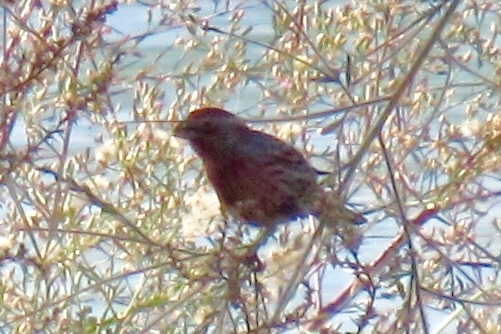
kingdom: Animalia
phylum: Chordata
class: Aves
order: Passeriformes
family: Fringillidae
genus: Haemorhous
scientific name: Haemorhous mexicanus
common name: House finch
